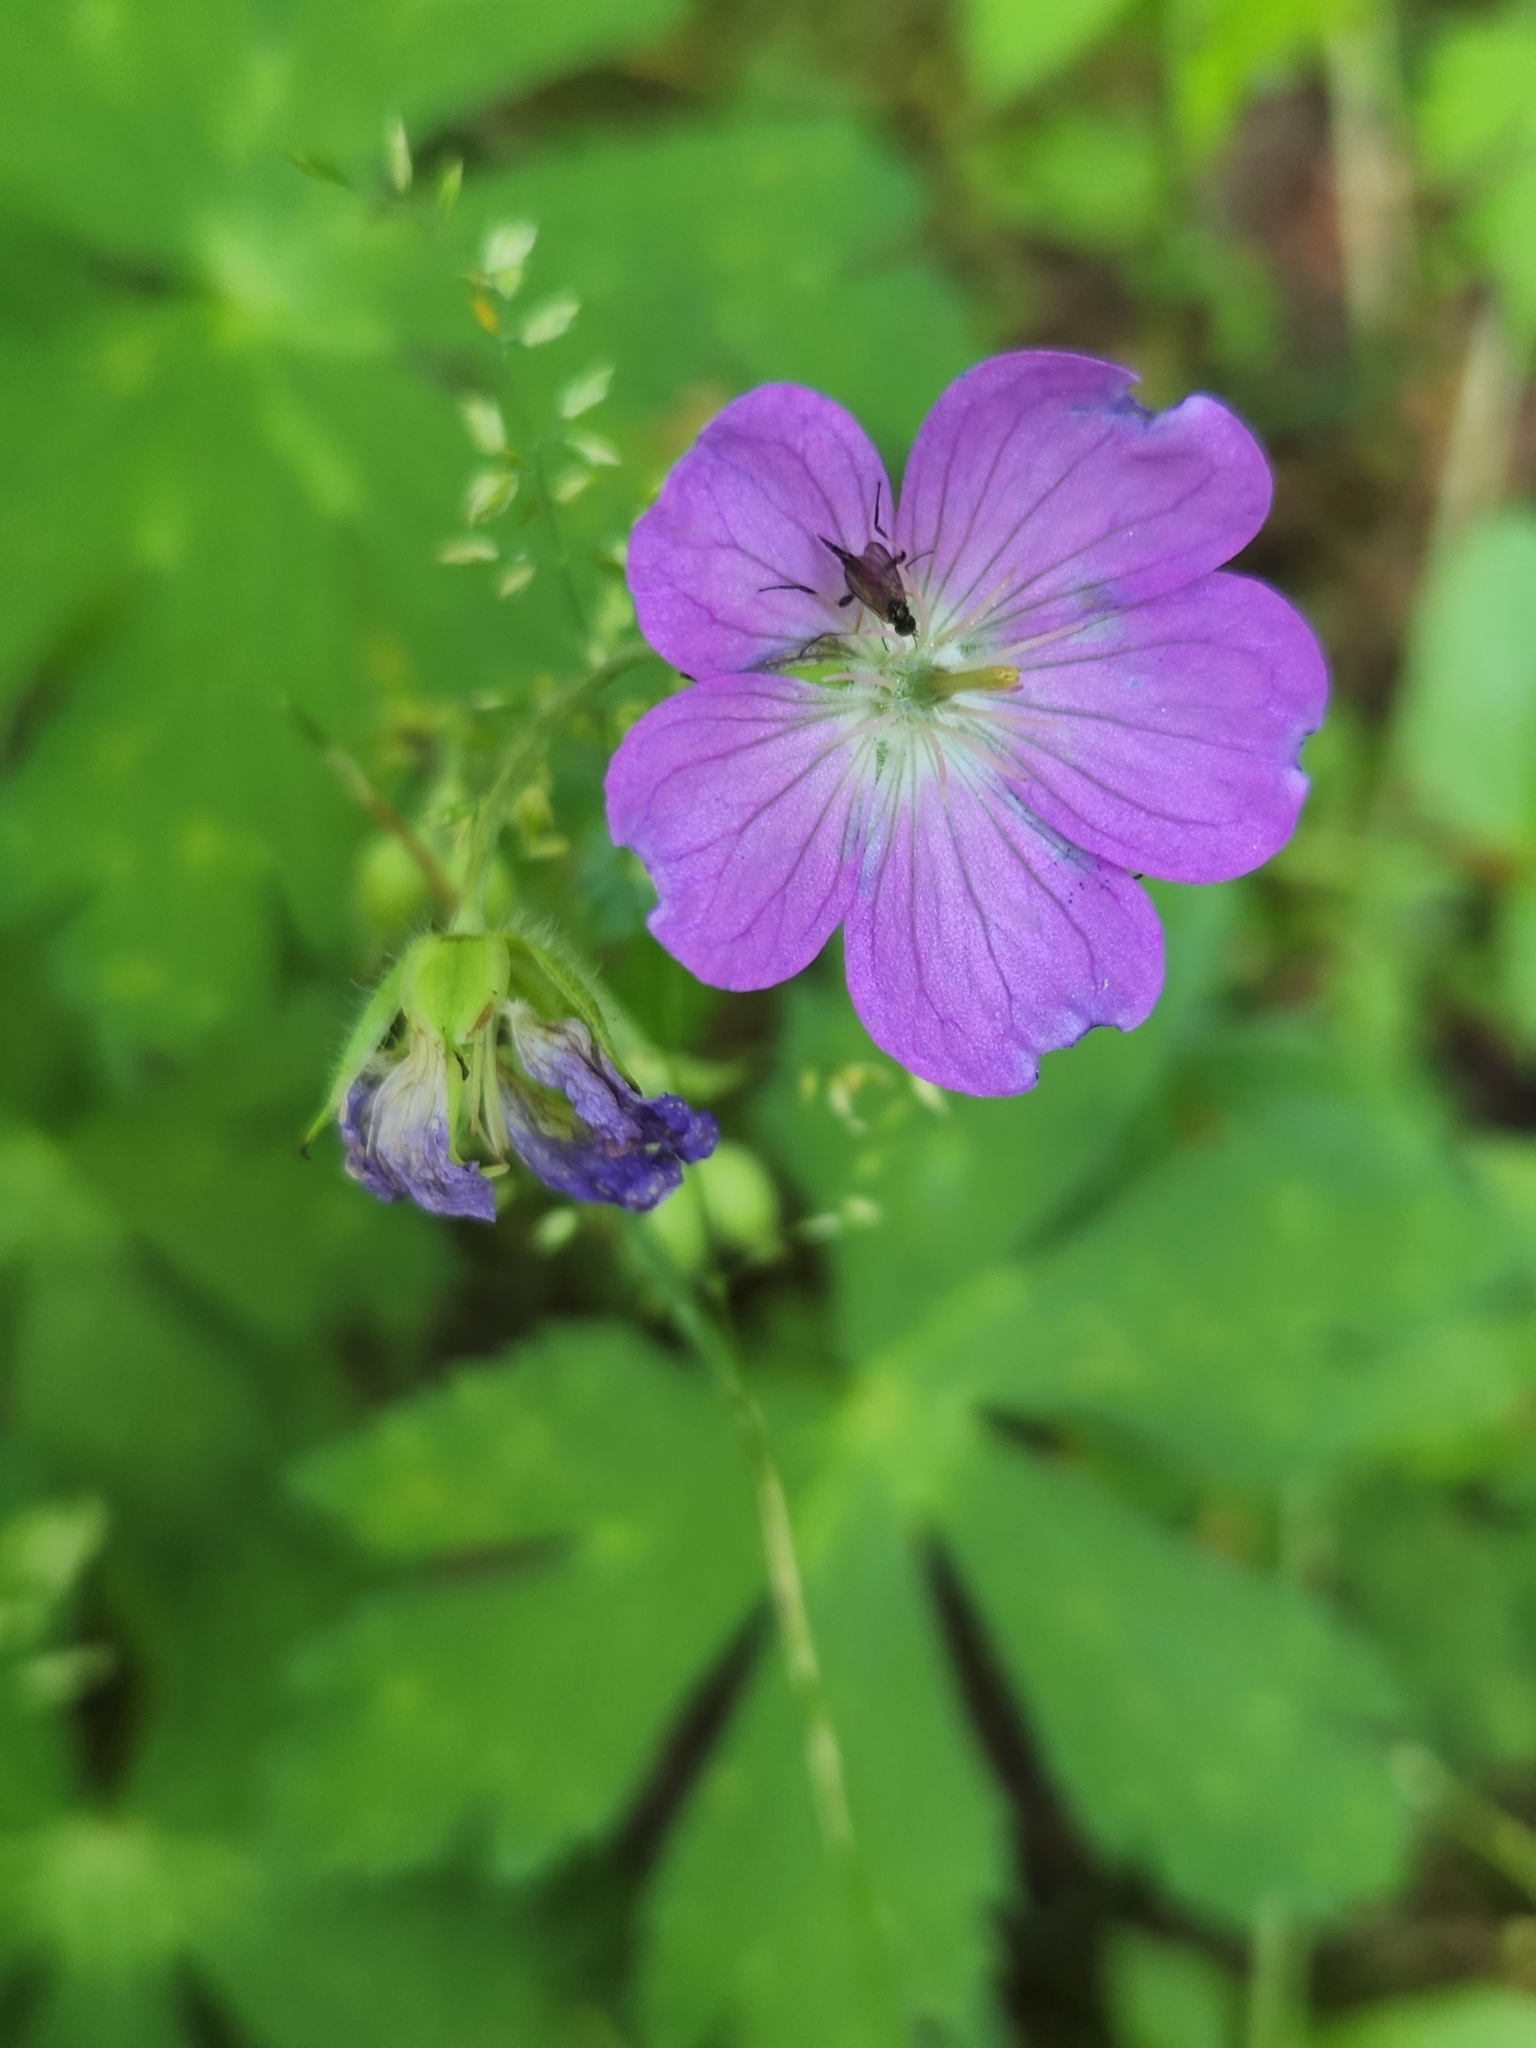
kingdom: Plantae
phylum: Tracheophyta
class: Magnoliopsida
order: Geraniales
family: Geraniaceae
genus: Geranium
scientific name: Geranium maculatum
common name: Spotted geranium
